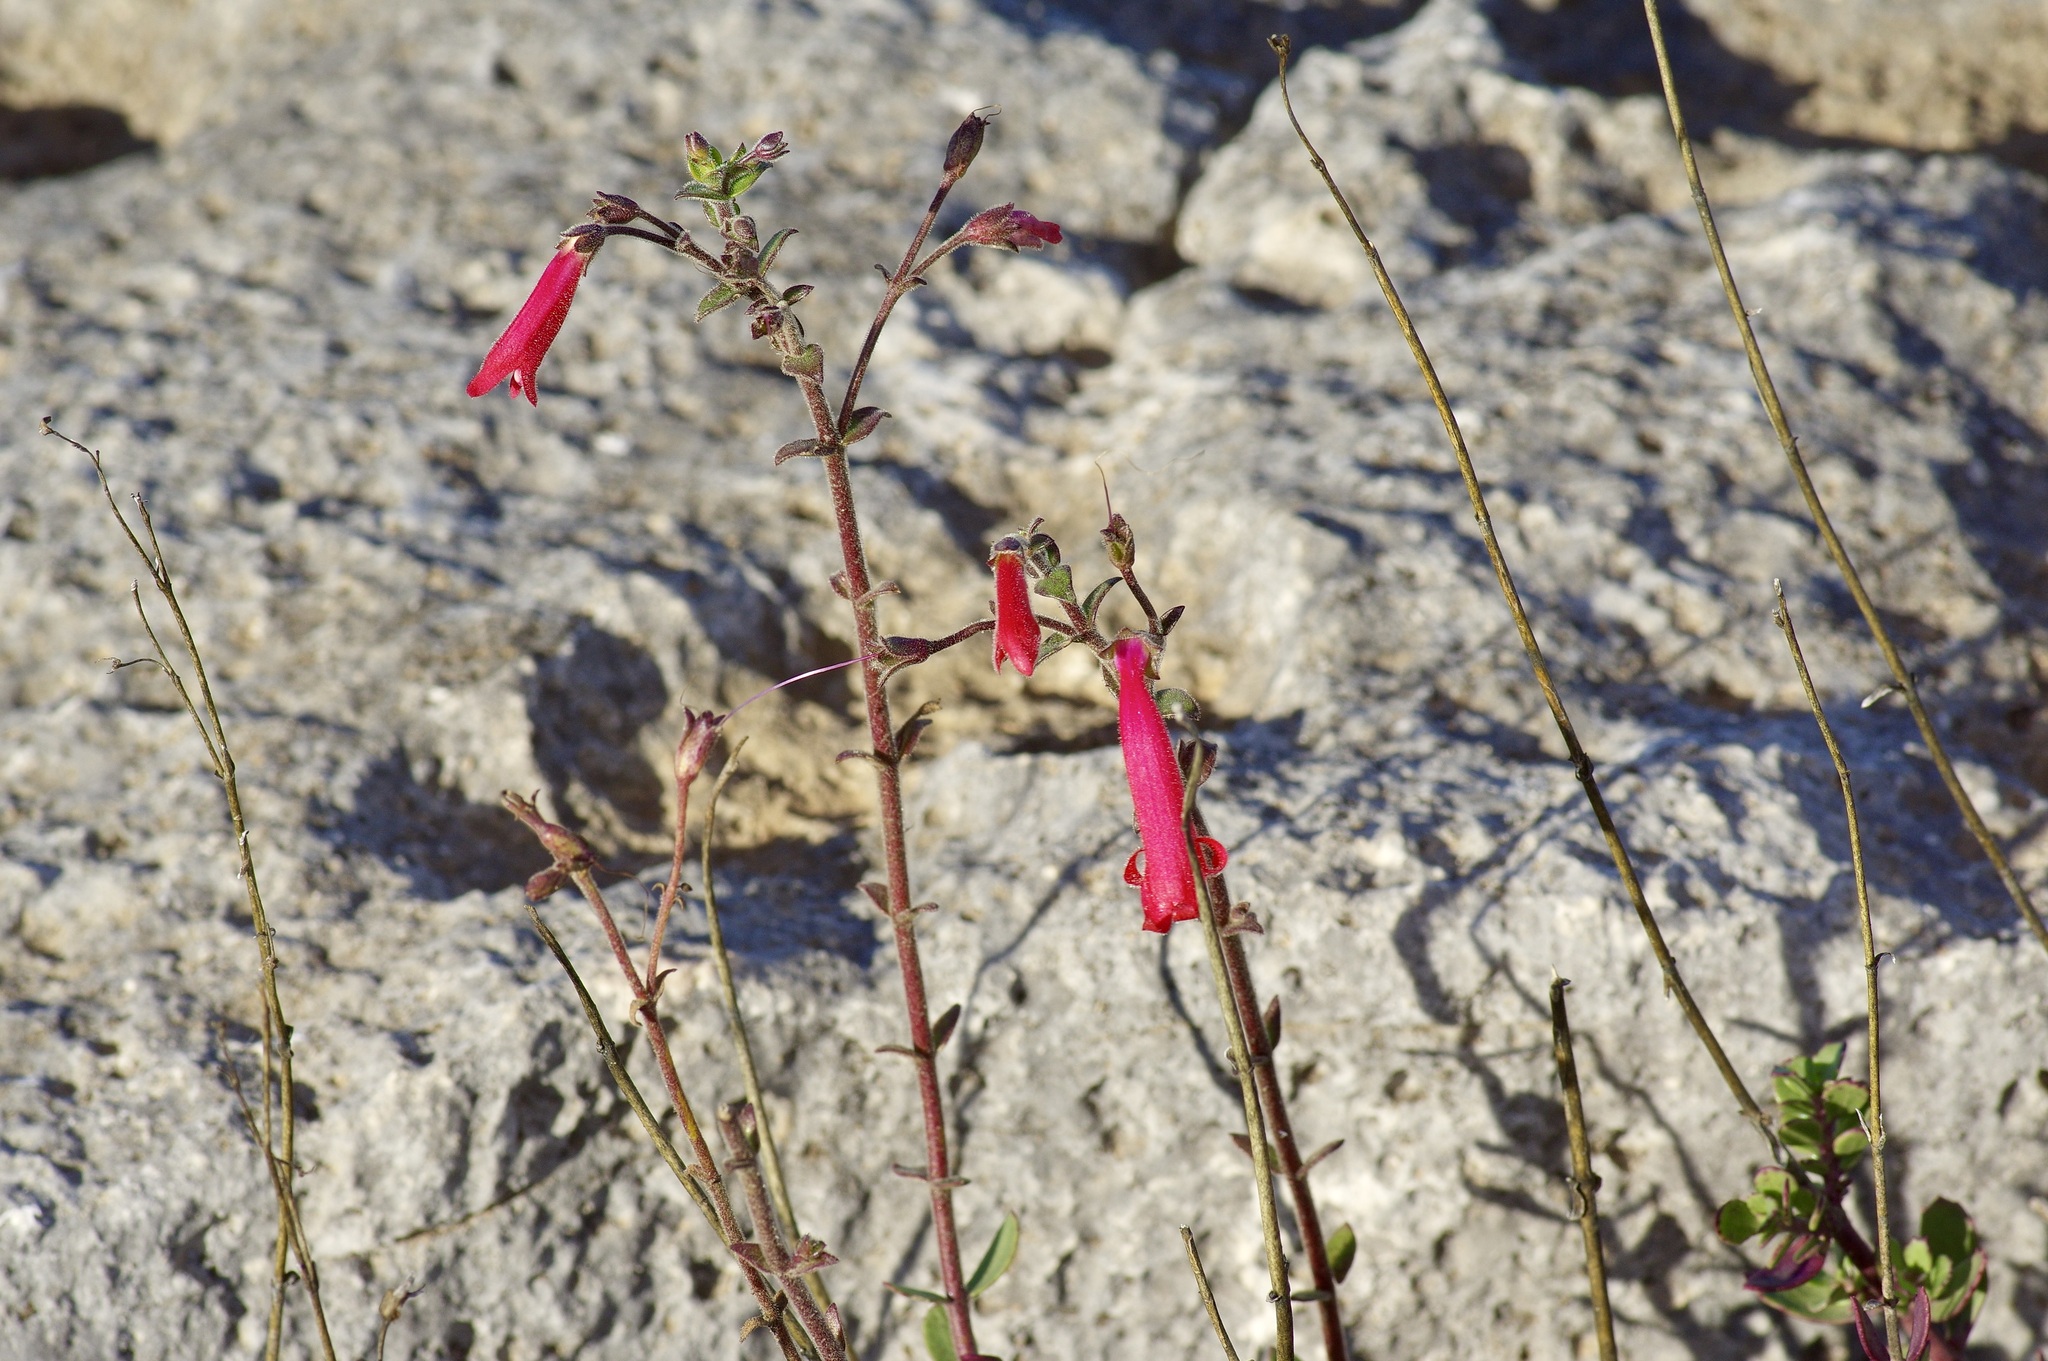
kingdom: Plantae
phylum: Tracheophyta
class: Magnoliopsida
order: Lamiales
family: Plantaginaceae
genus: Penstemon
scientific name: Penstemon baccharifolius
